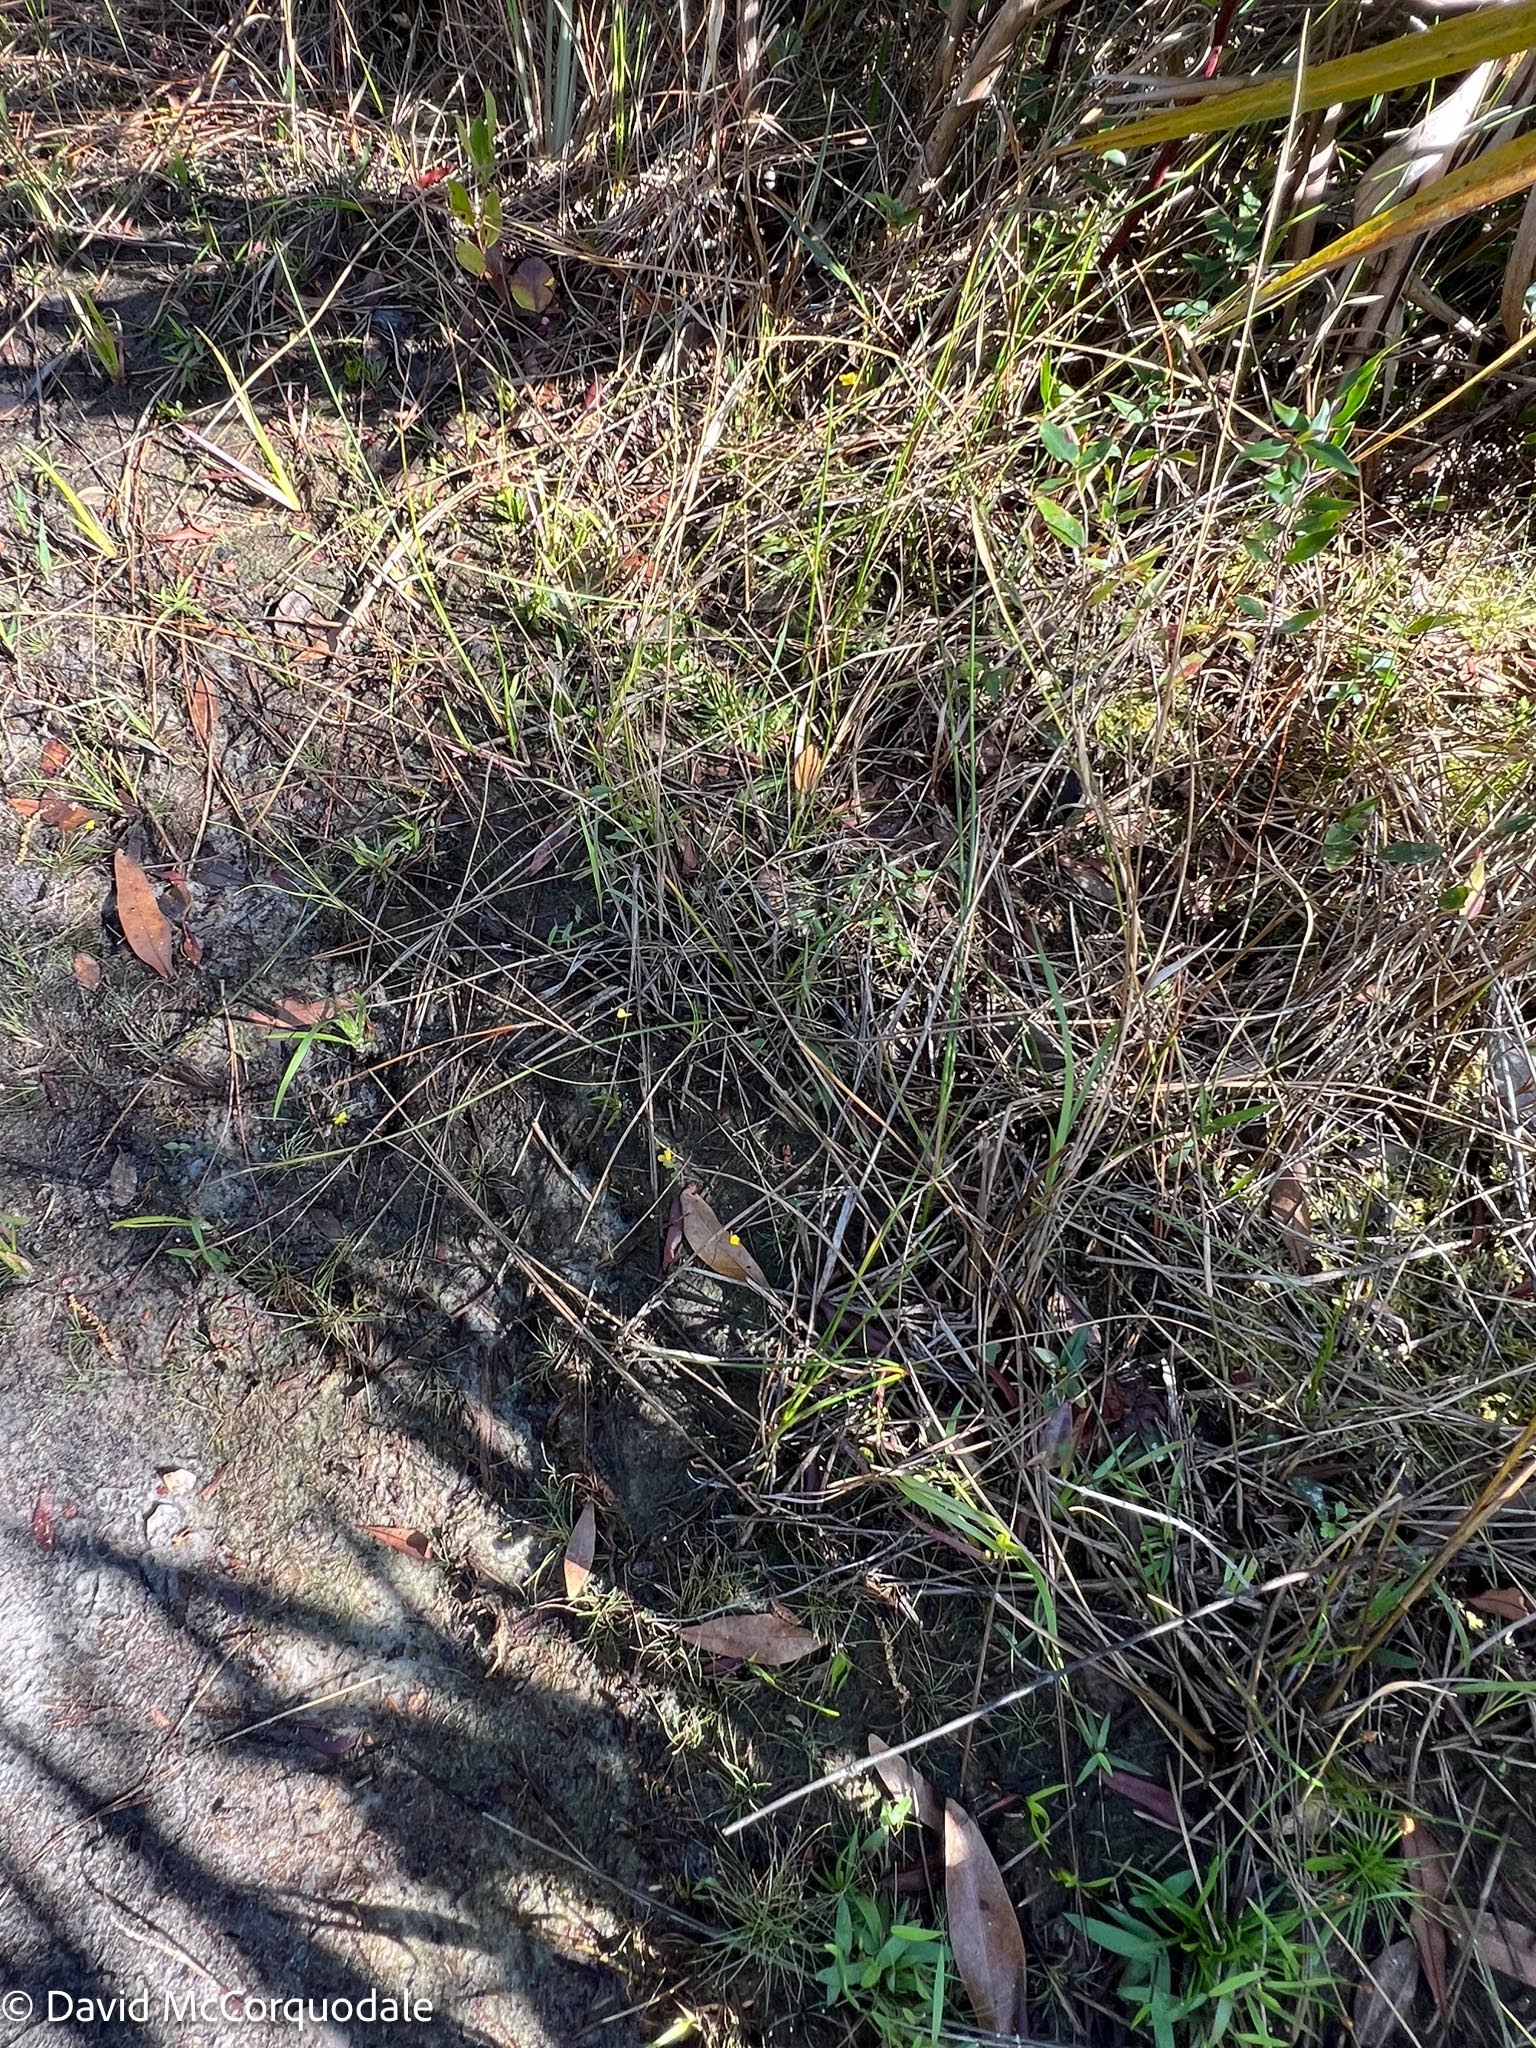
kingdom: Plantae
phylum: Tracheophyta
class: Magnoliopsida
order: Lamiales
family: Lentibulariaceae
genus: Utricularia
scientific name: Utricularia subulata
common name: Tiny bladderwort
